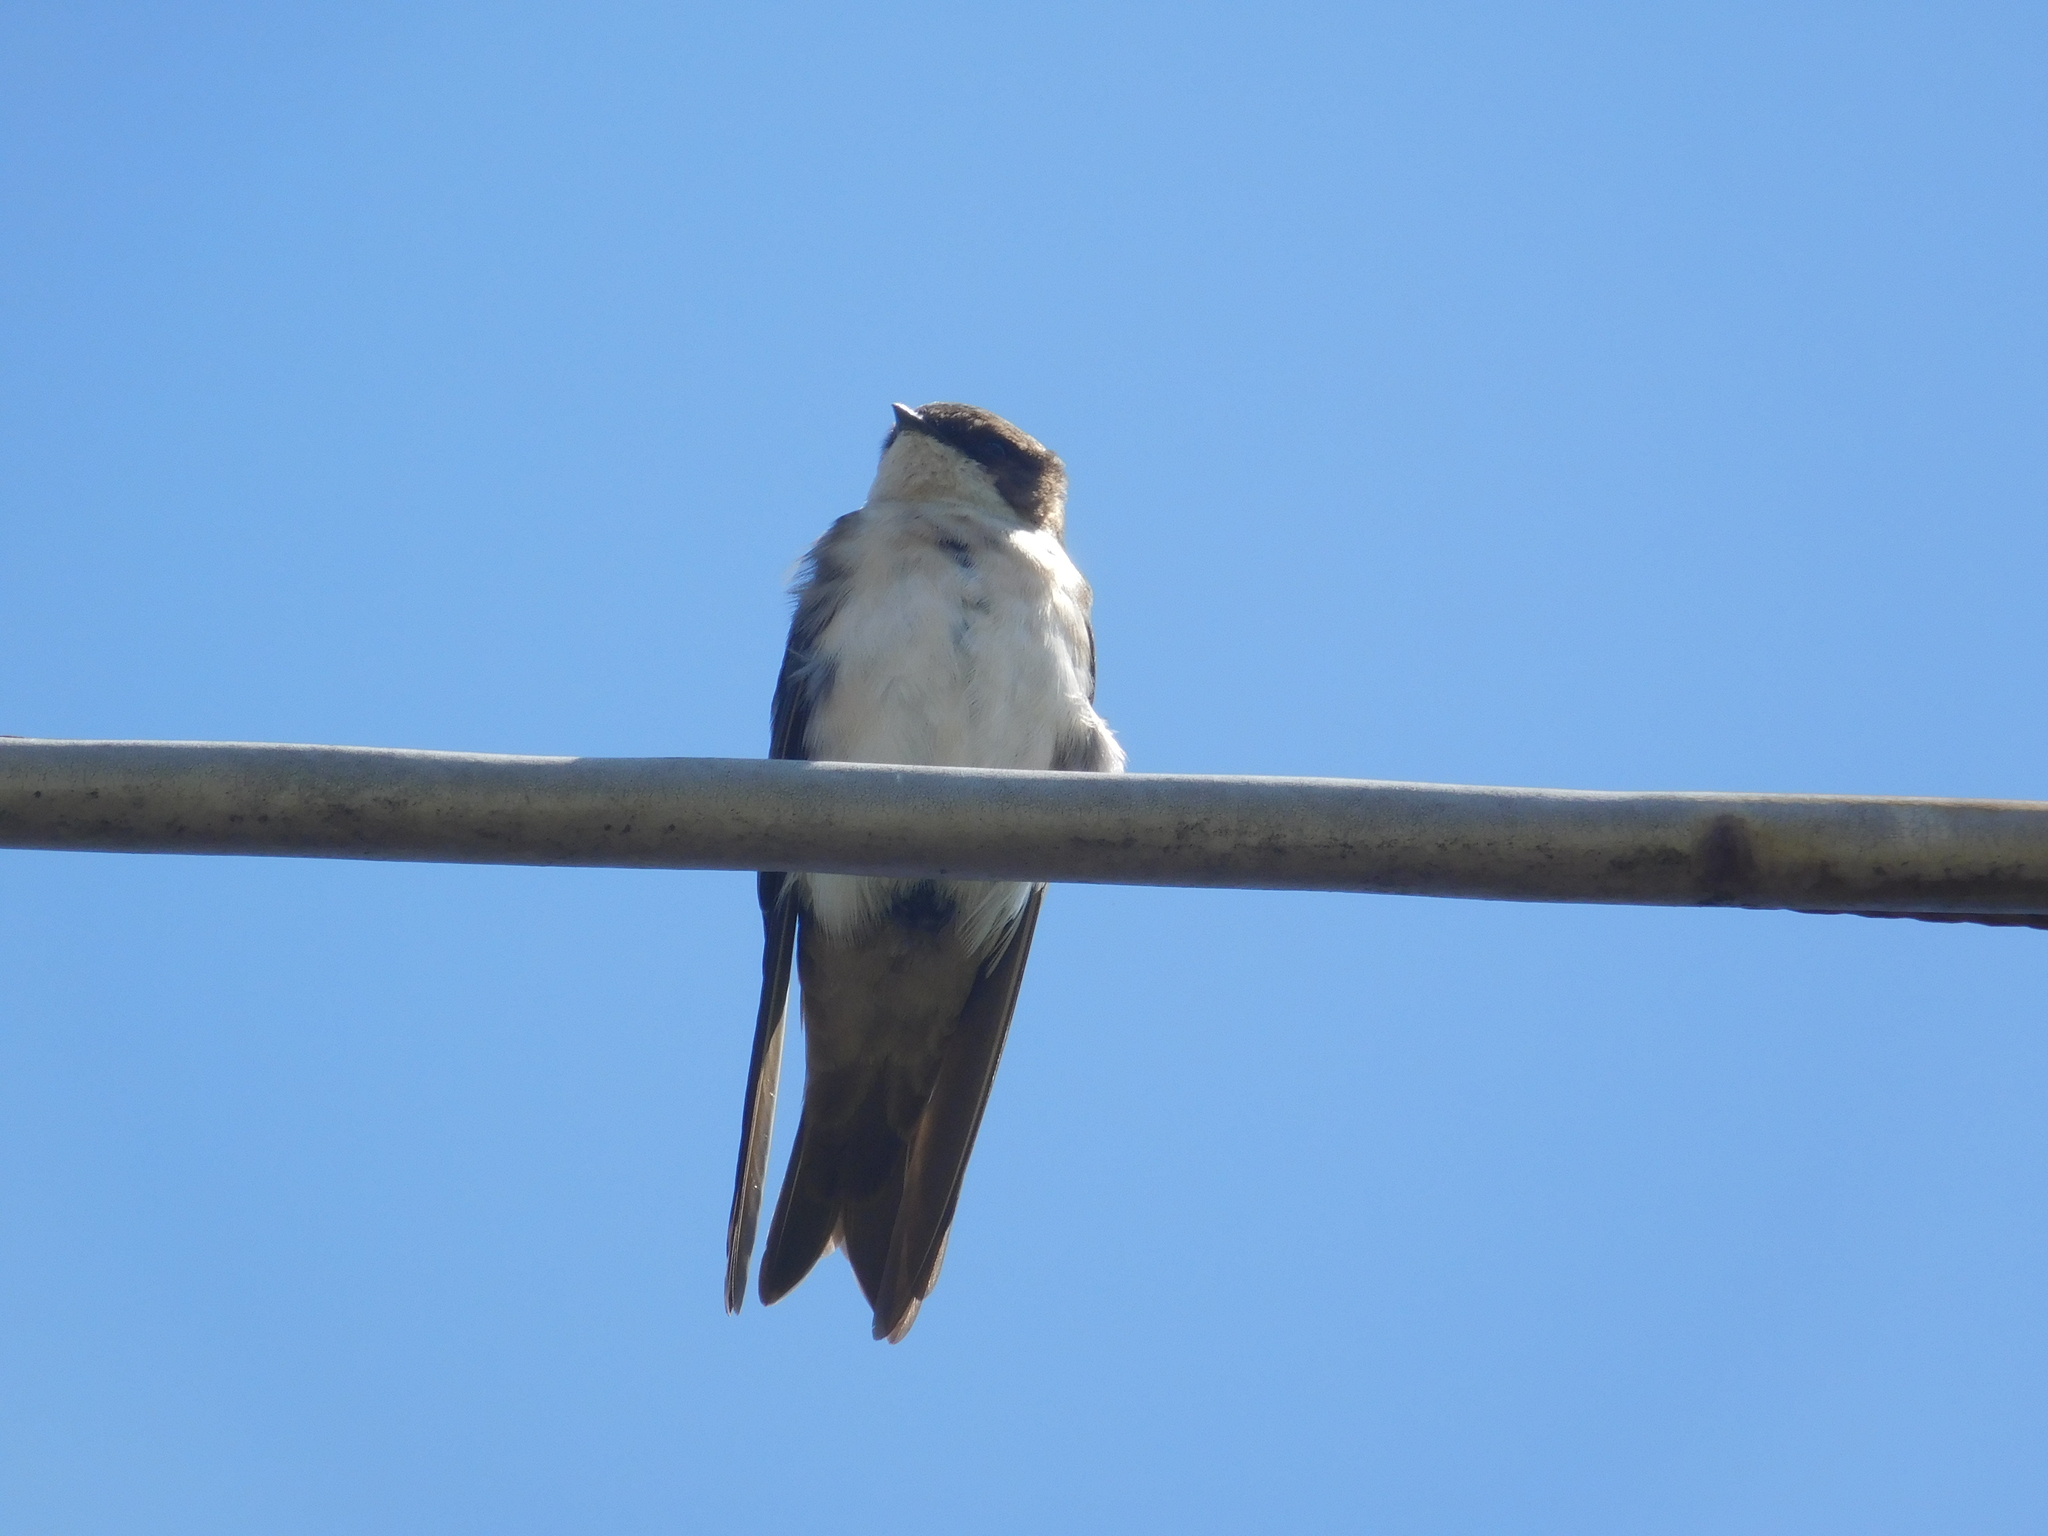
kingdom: Animalia
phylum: Chordata
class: Aves
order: Passeriformes
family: Hirundinidae
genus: Notiochelidon
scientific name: Notiochelidon cyanoleuca
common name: Blue-and-white swallow
